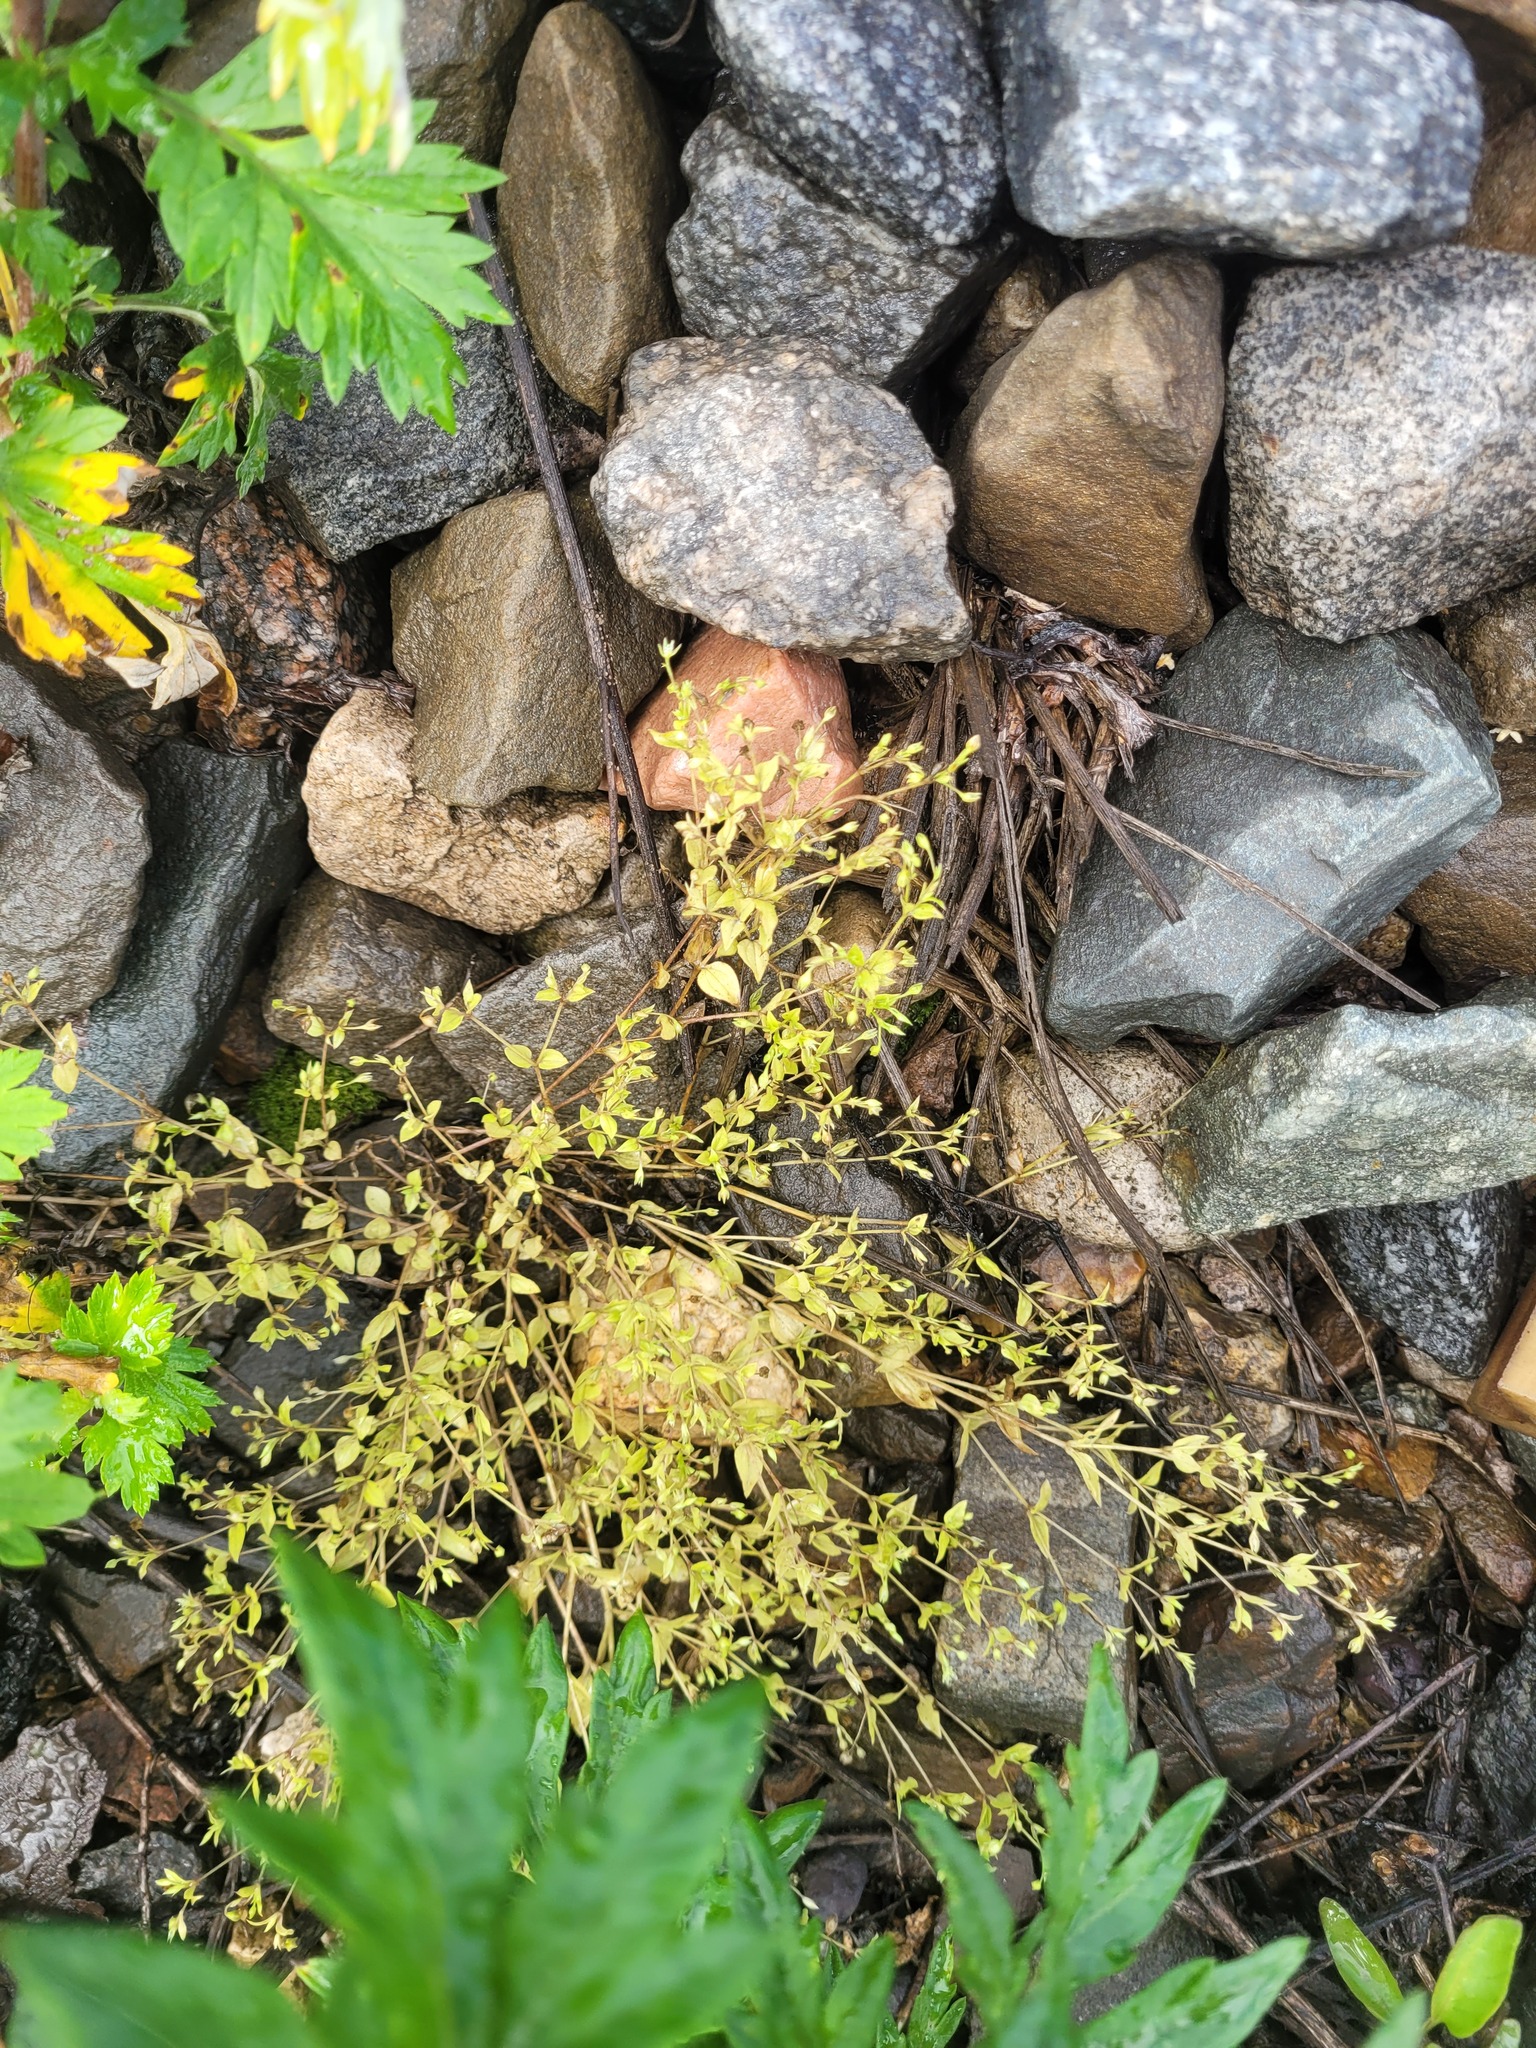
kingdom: Plantae
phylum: Tracheophyta
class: Magnoliopsida
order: Caryophyllales
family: Caryophyllaceae
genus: Moehringia
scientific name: Moehringia trinervia
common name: Three-nerved sandwort
